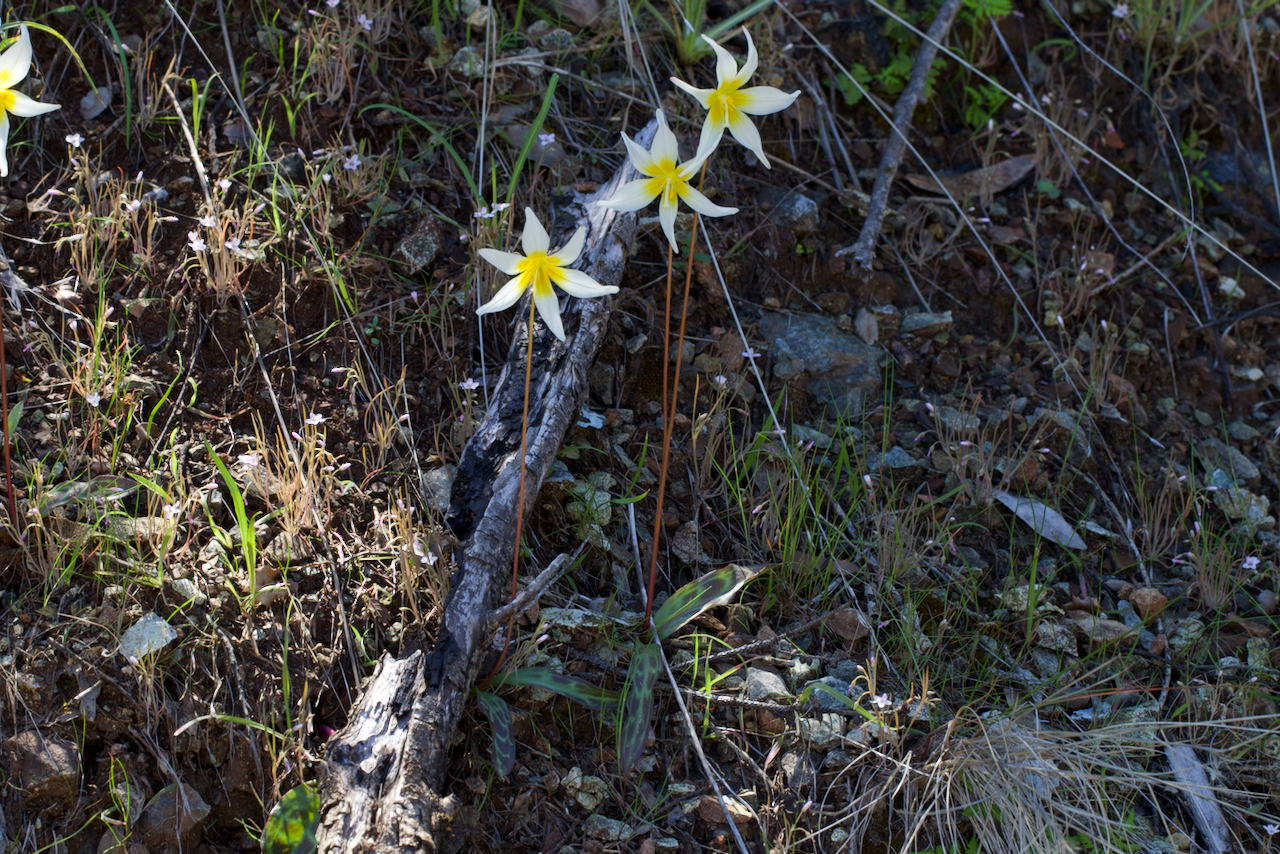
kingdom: Plantae
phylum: Tracheophyta
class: Liliopsida
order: Liliales
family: Liliaceae
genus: Erythronium
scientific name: Erythronium helenae
